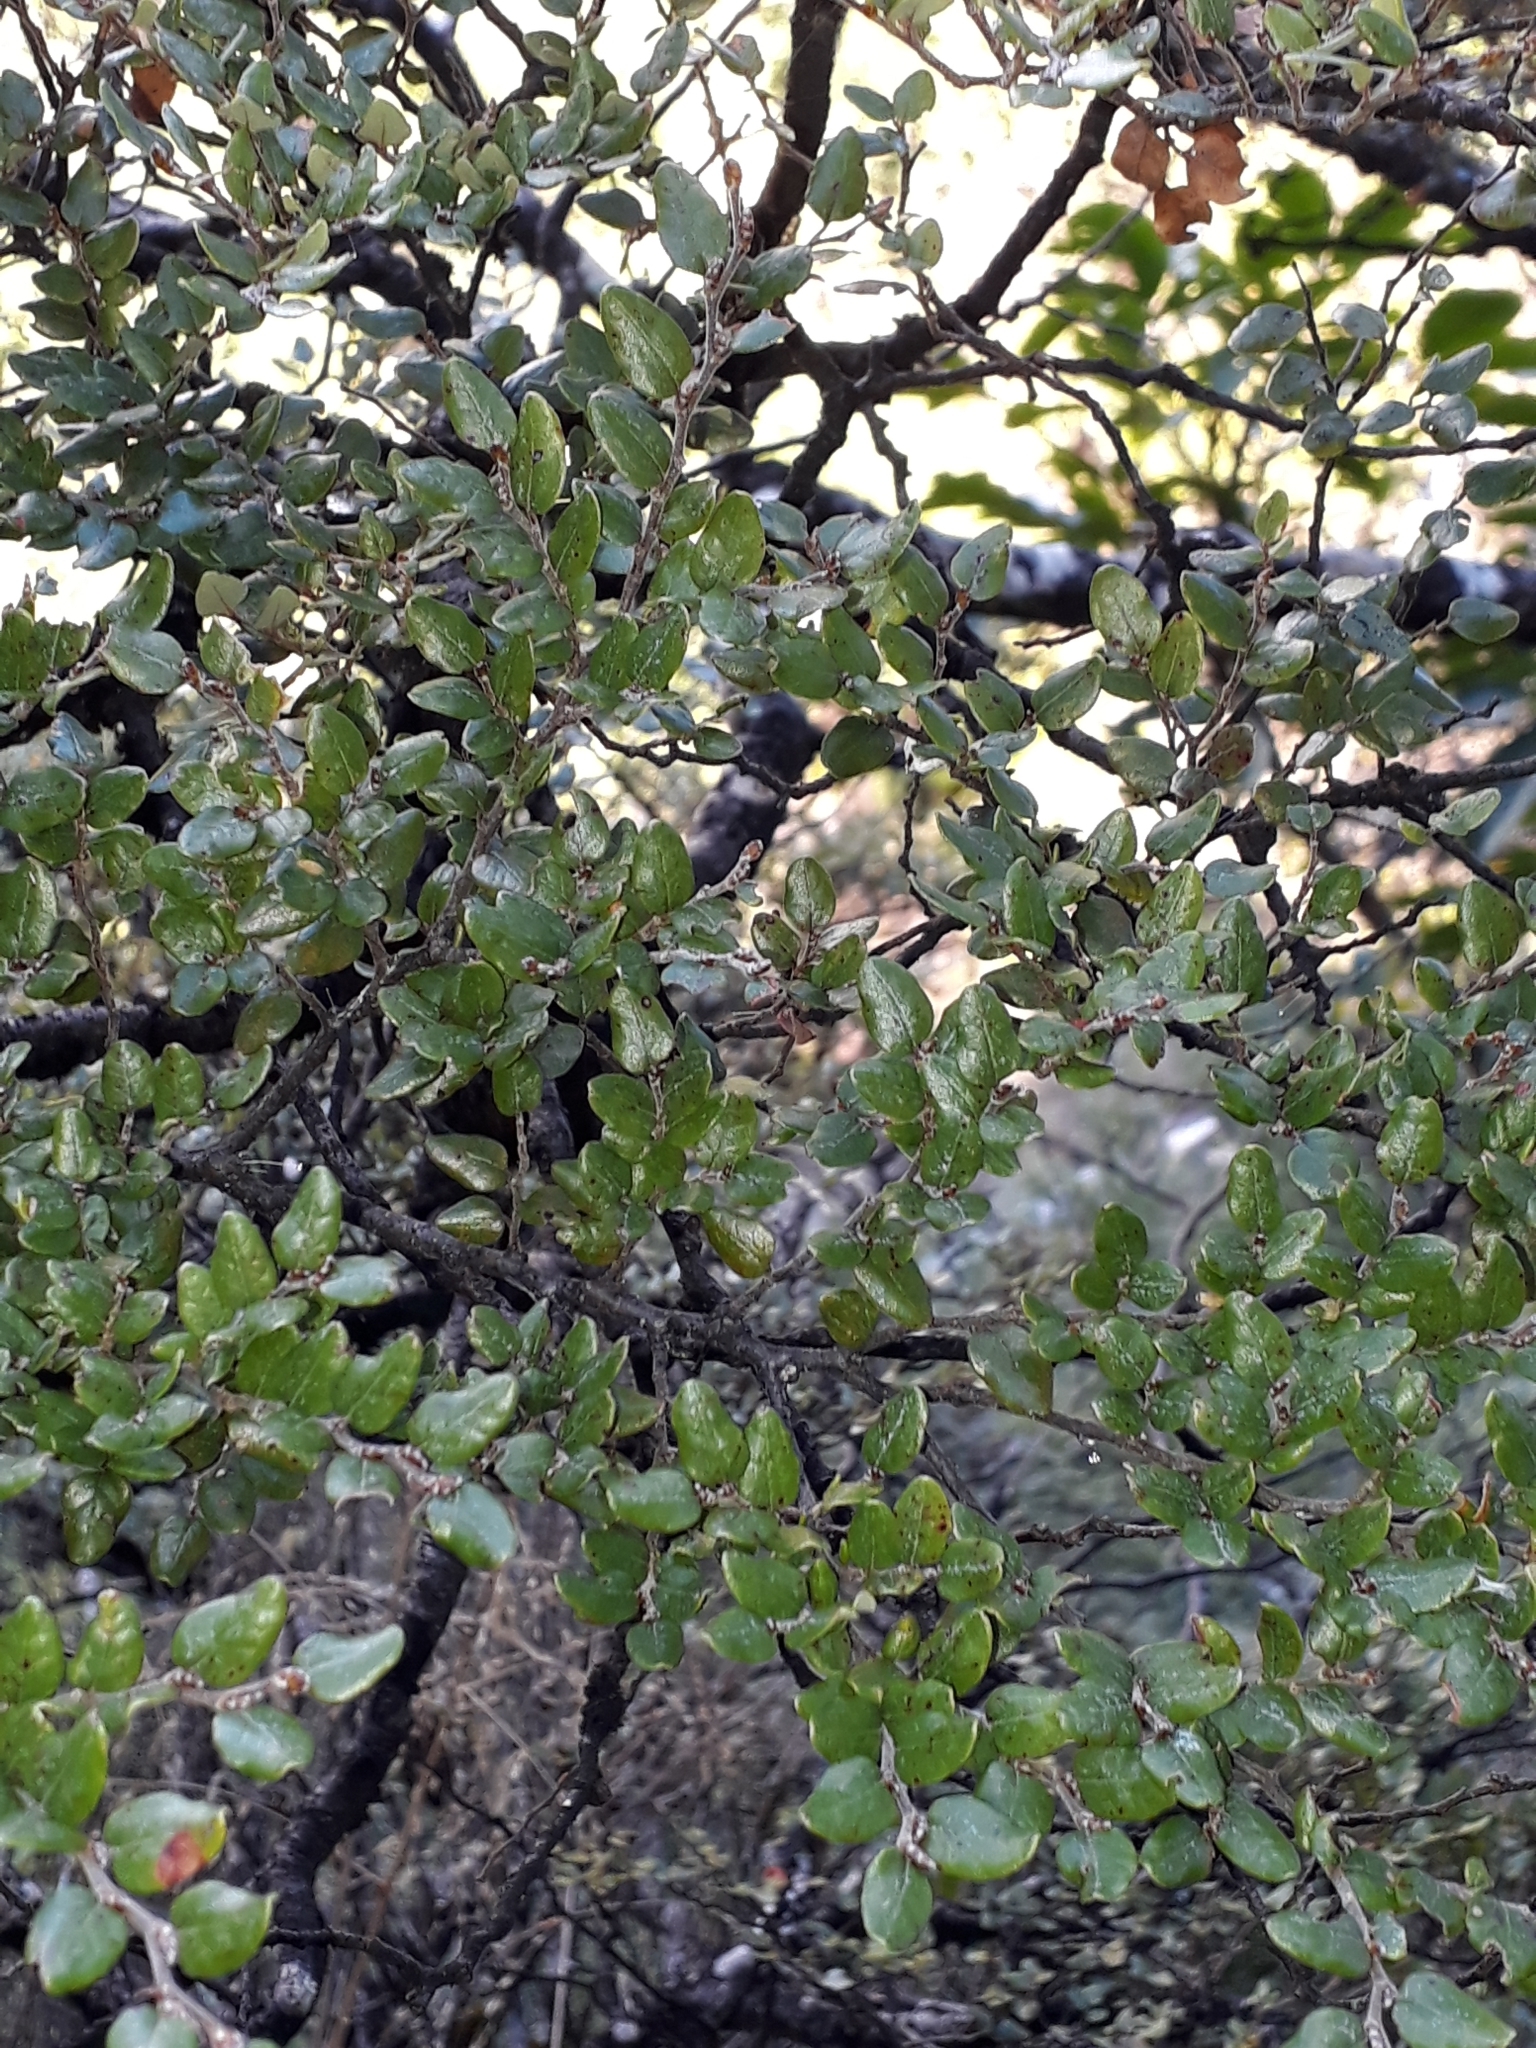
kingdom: Plantae
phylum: Tracheophyta
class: Magnoliopsida
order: Fagales
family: Nothofagaceae
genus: Nothofagus
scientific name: Nothofagus cliffortioides
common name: Mountain beech
